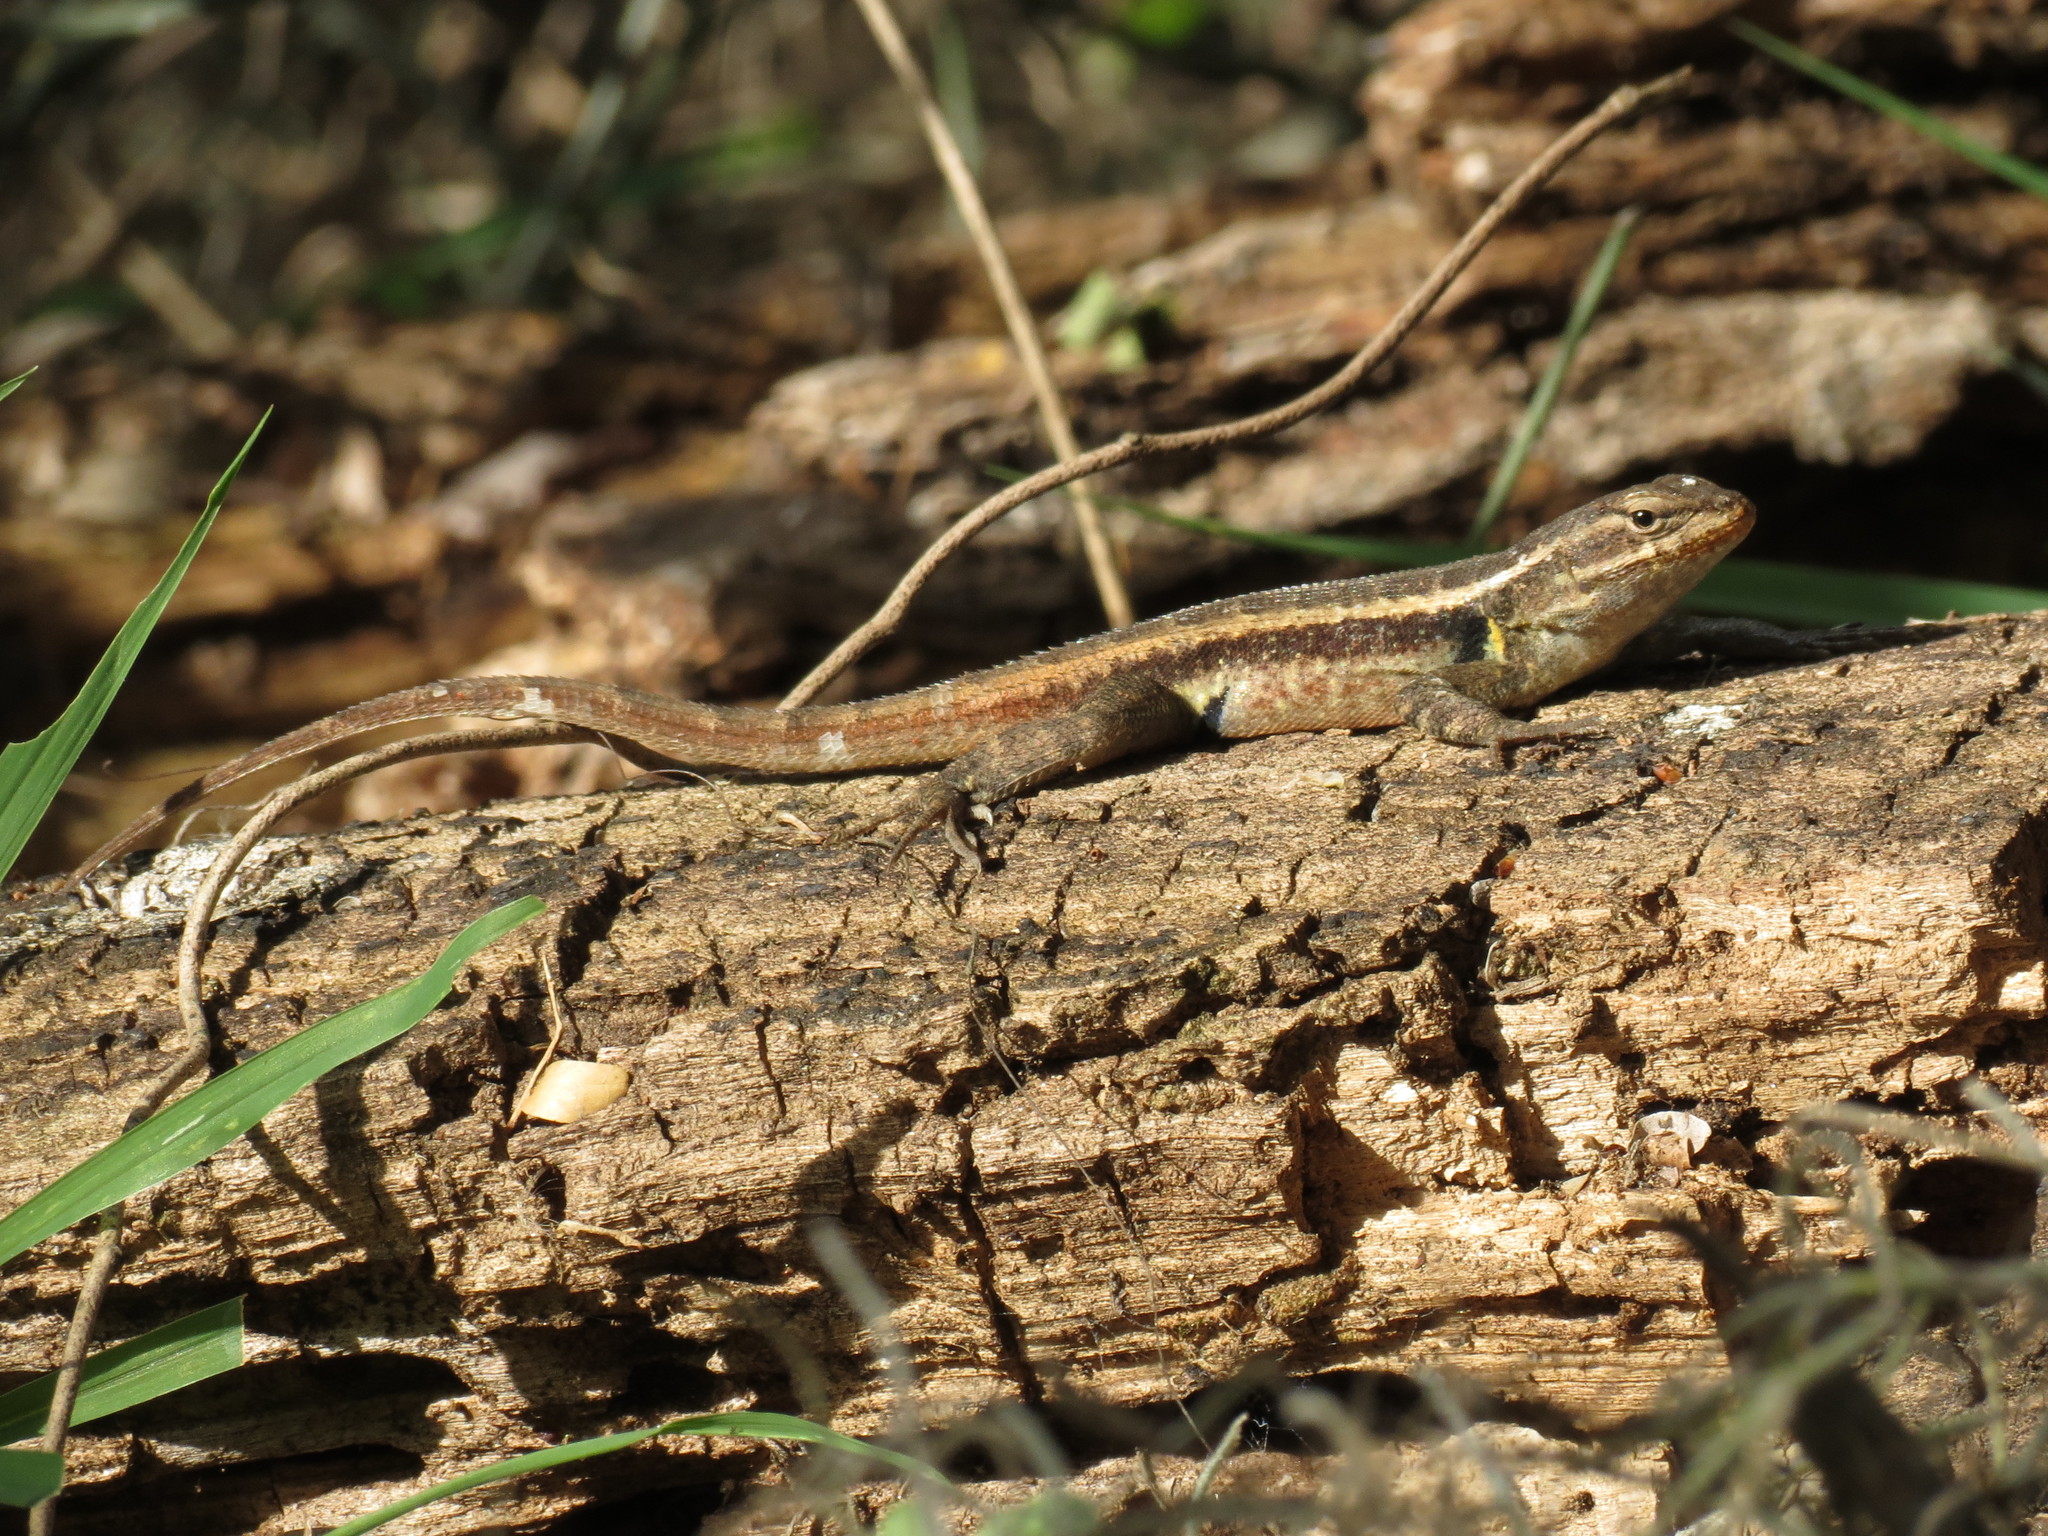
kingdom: Animalia
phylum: Chordata
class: Squamata
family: Phrynosomatidae
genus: Sceloporus
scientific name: Sceloporus variabilis
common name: Rosebelly lizard
